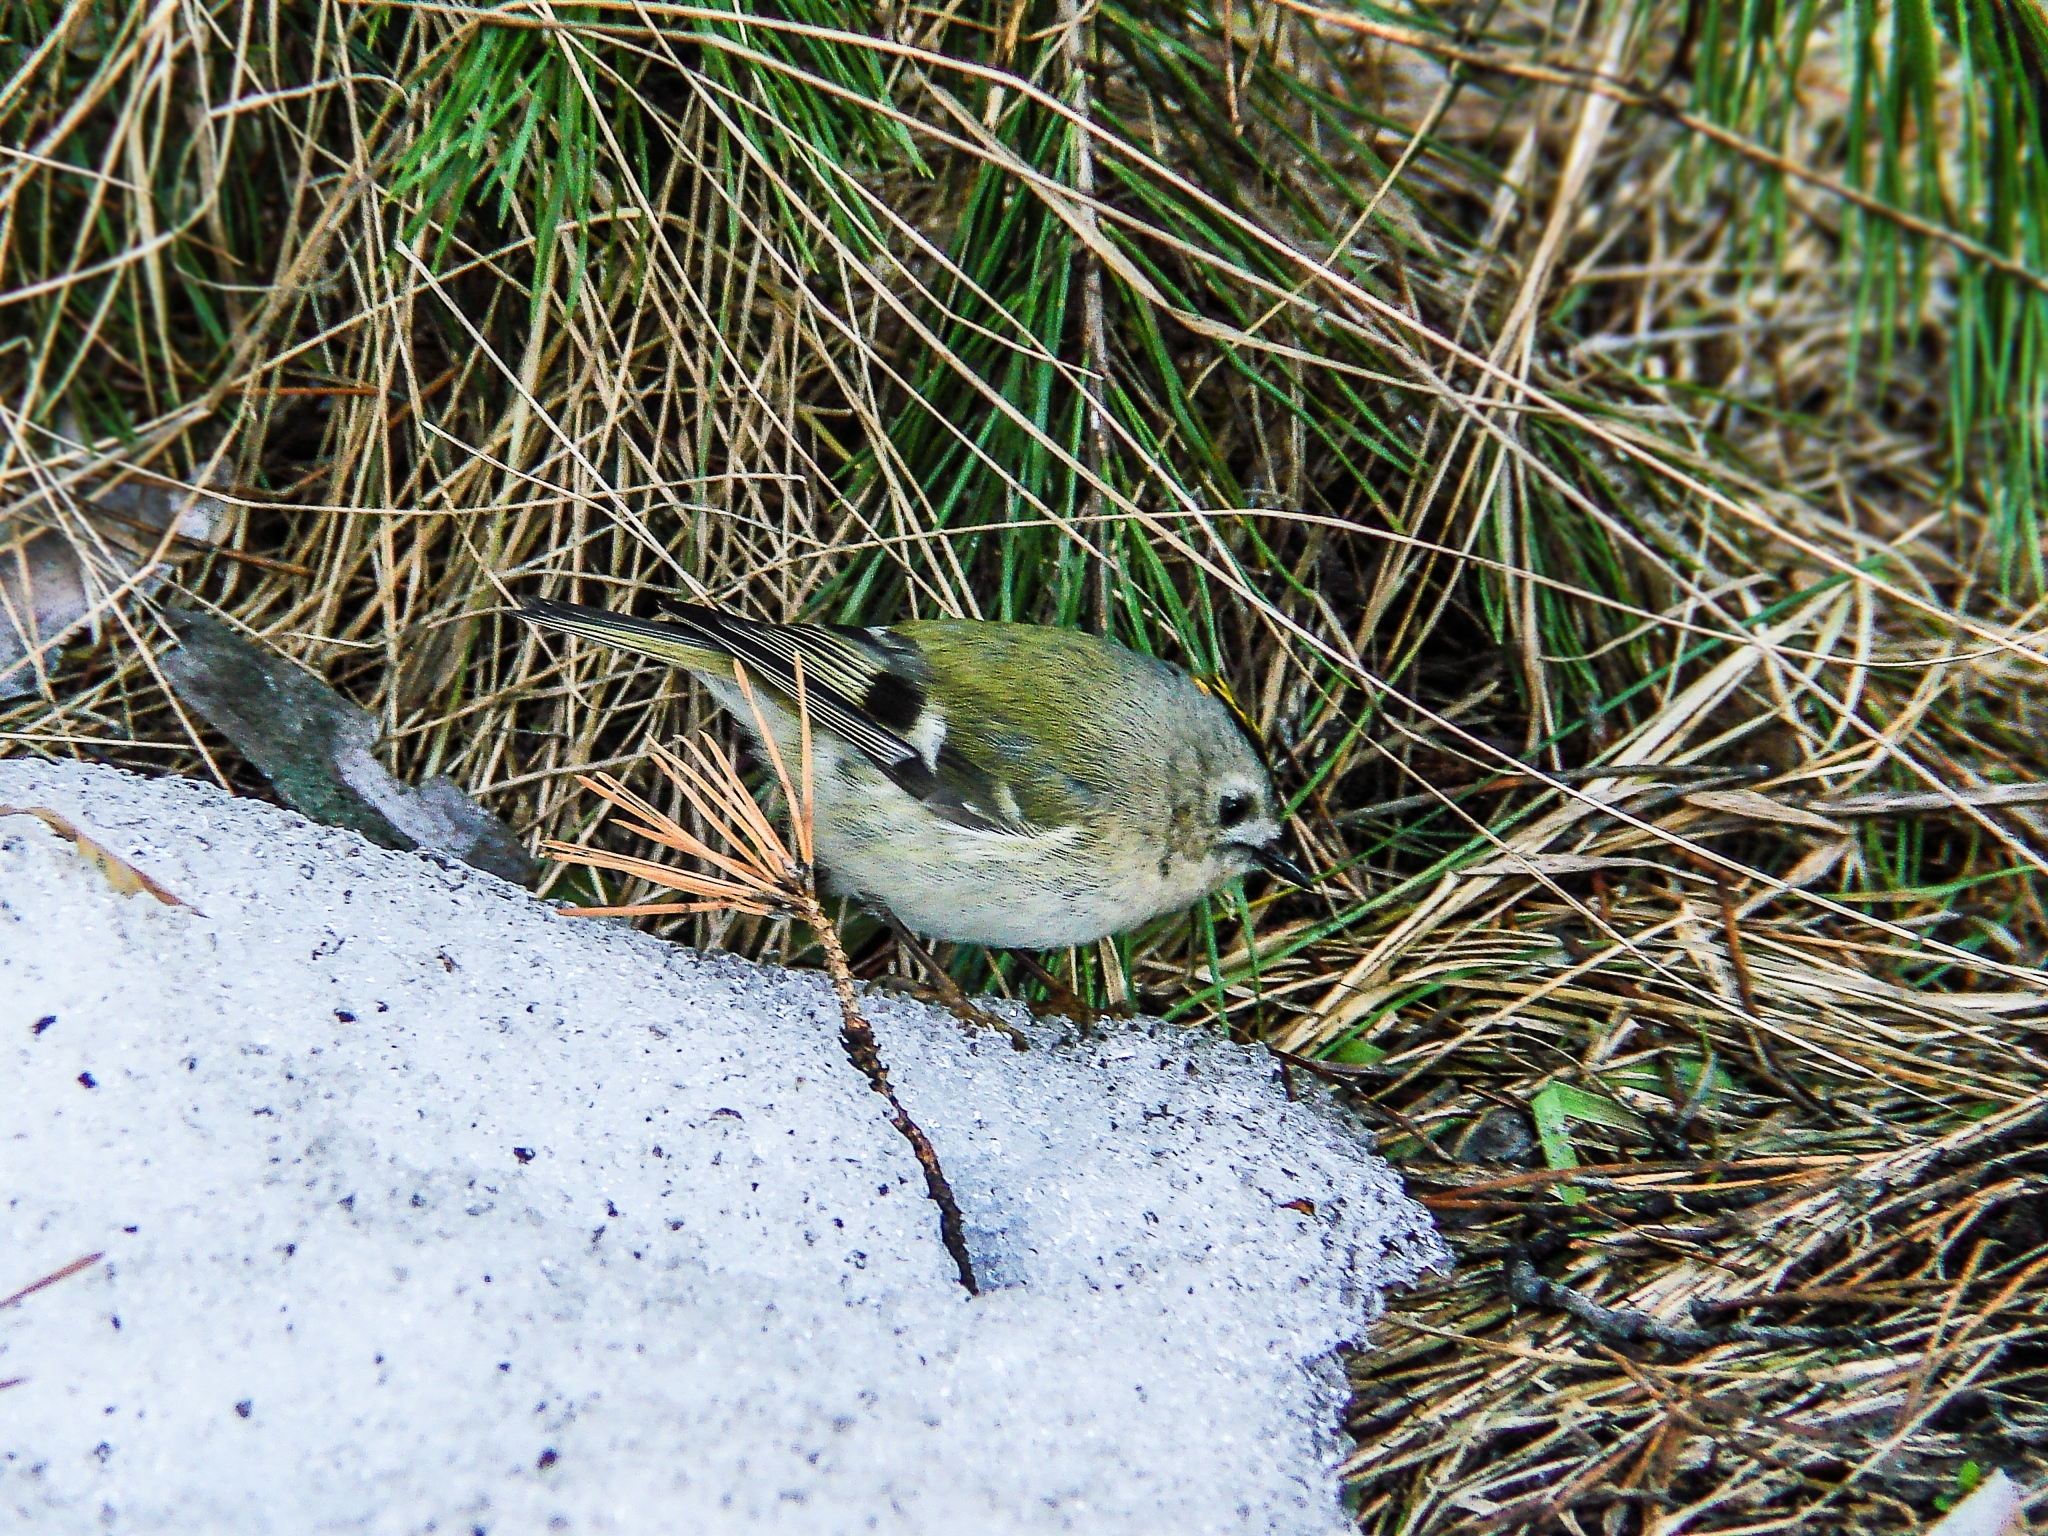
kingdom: Animalia
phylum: Chordata
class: Aves
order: Passeriformes
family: Regulidae
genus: Regulus
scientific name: Regulus regulus
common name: Goldcrest
